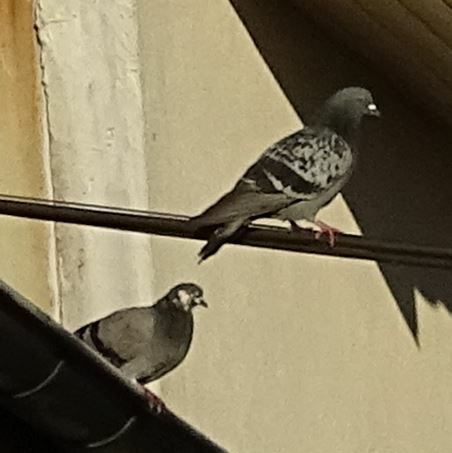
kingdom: Animalia
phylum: Chordata
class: Aves
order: Columbiformes
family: Columbidae
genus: Columba
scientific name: Columba livia
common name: Rock pigeon
